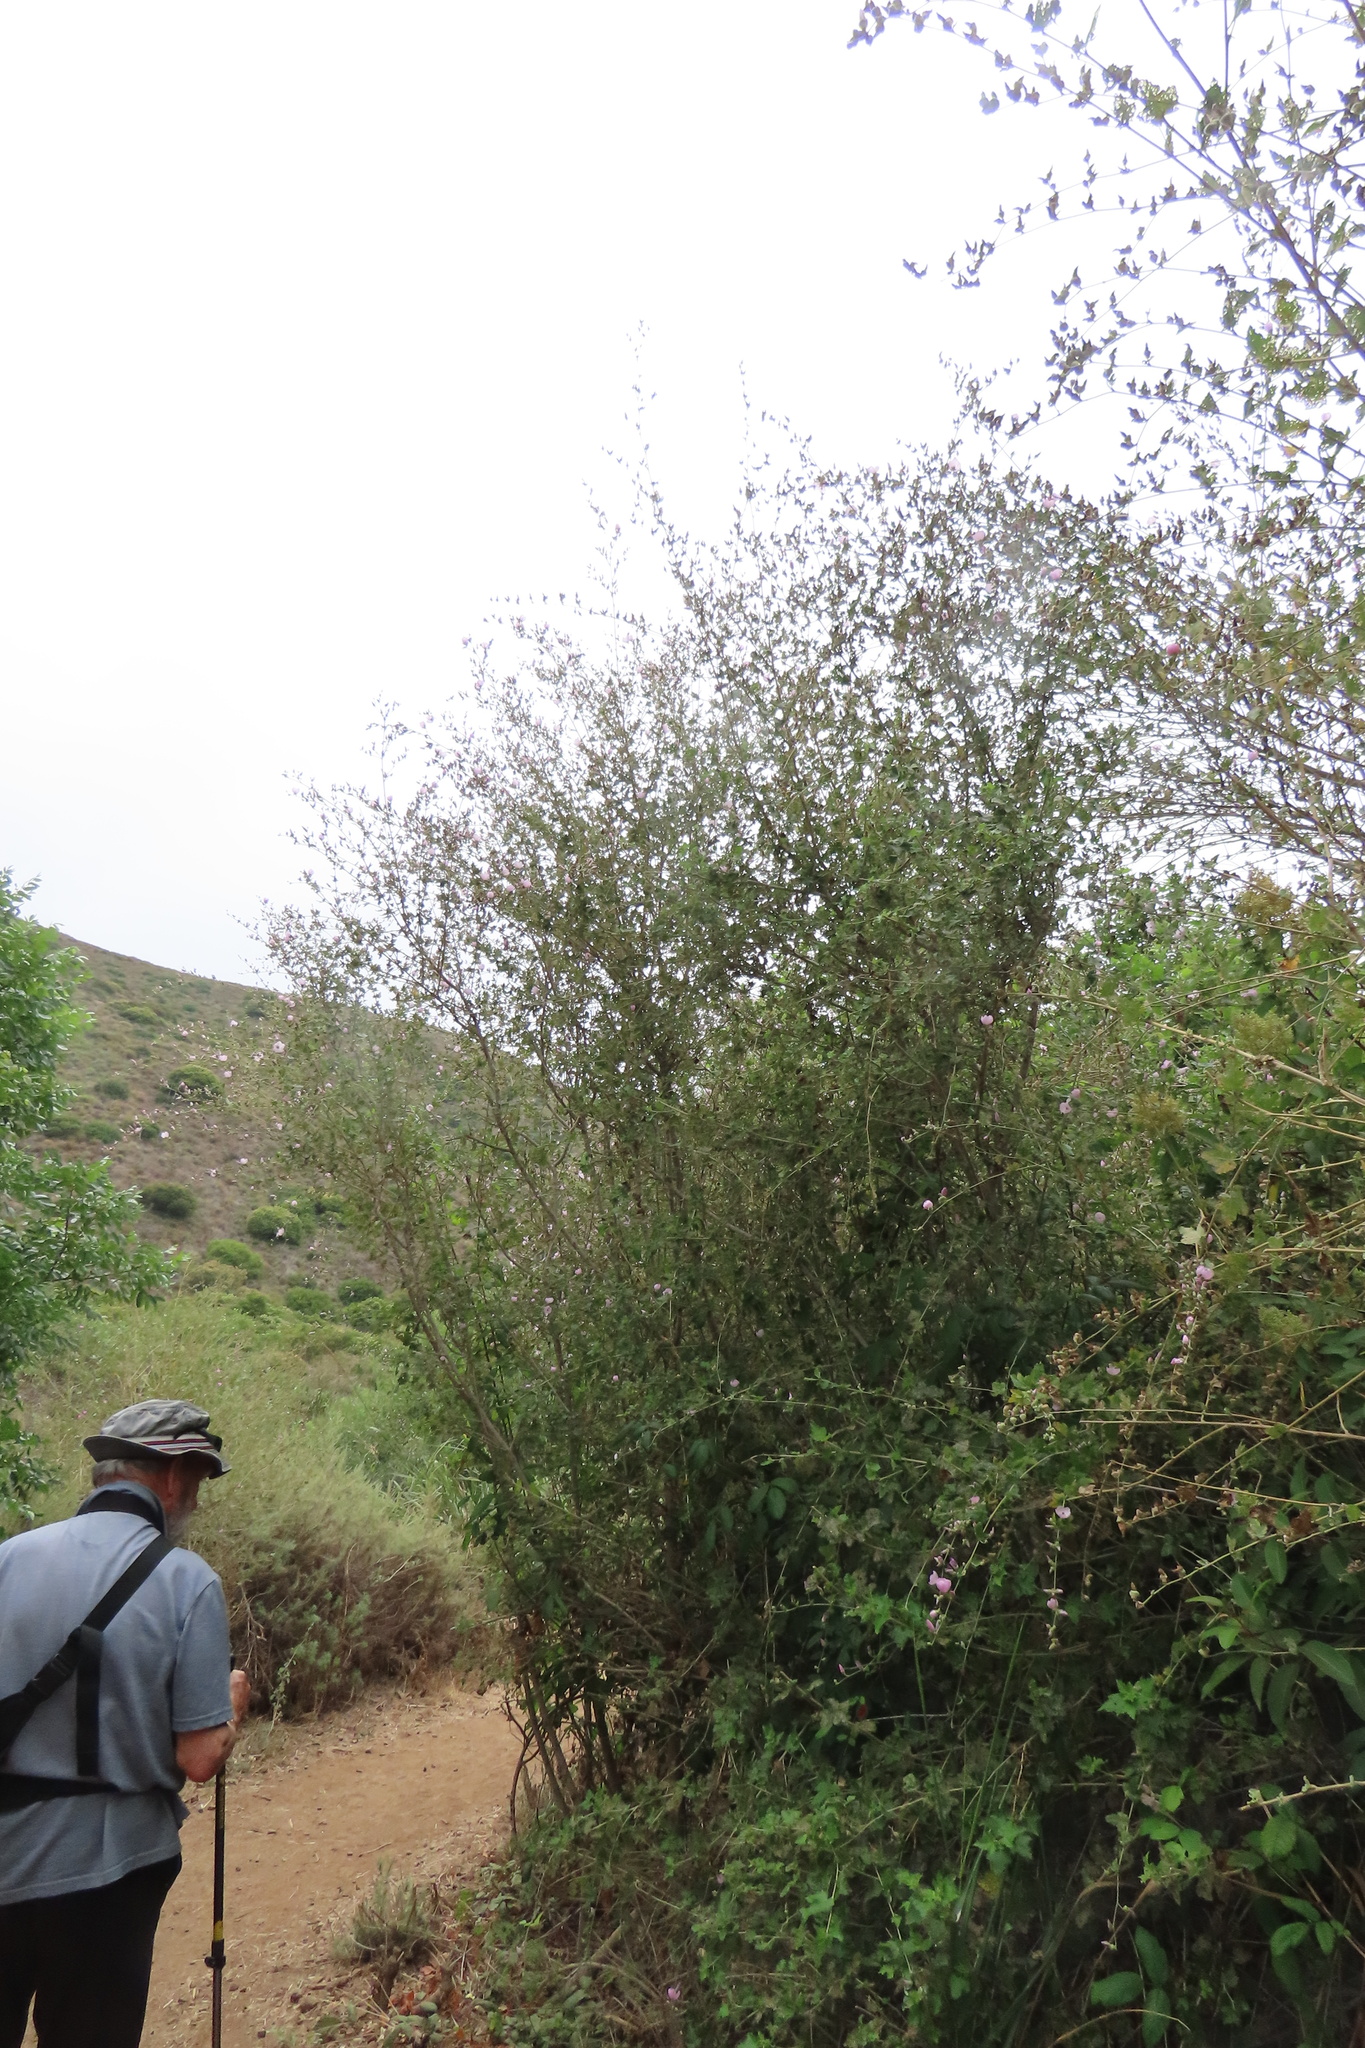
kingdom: Plantae
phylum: Tracheophyta
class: Magnoliopsida
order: Malvales
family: Malvaceae
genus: Malacothamnus
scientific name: Malacothamnus fasciculatus
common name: Sant cruz island bush-mallow
